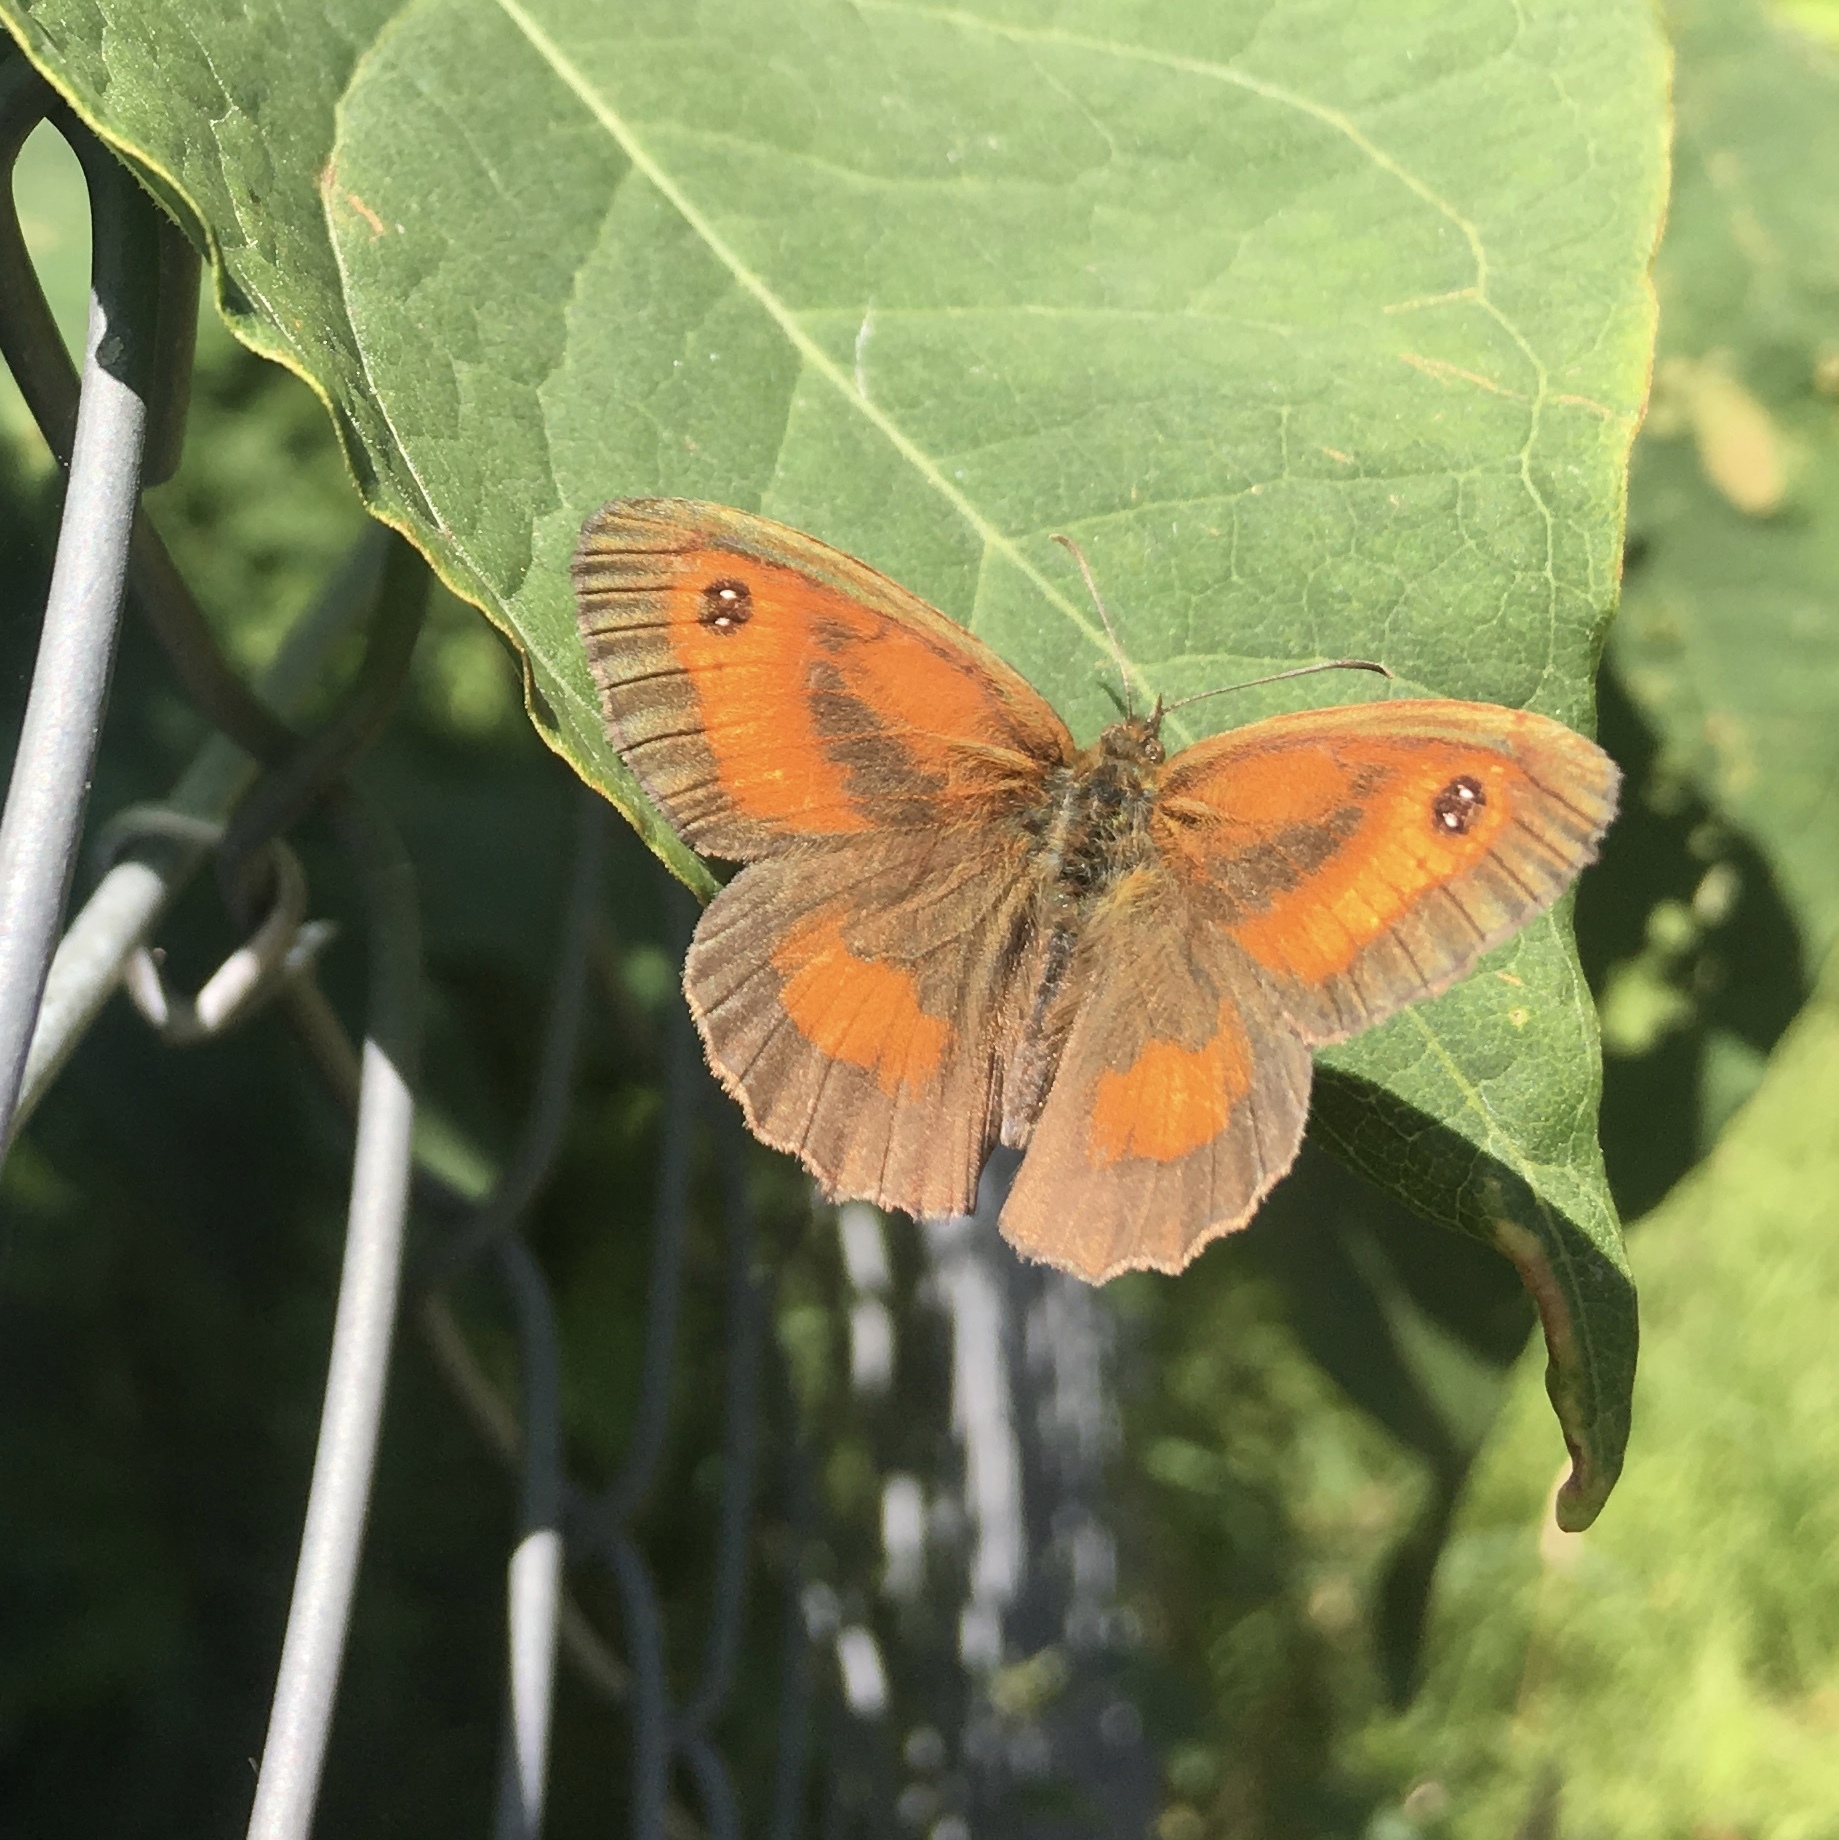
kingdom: Animalia
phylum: Arthropoda
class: Insecta
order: Lepidoptera
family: Nymphalidae
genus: Pyronia
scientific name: Pyronia tithonus
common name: Gatekeeper
